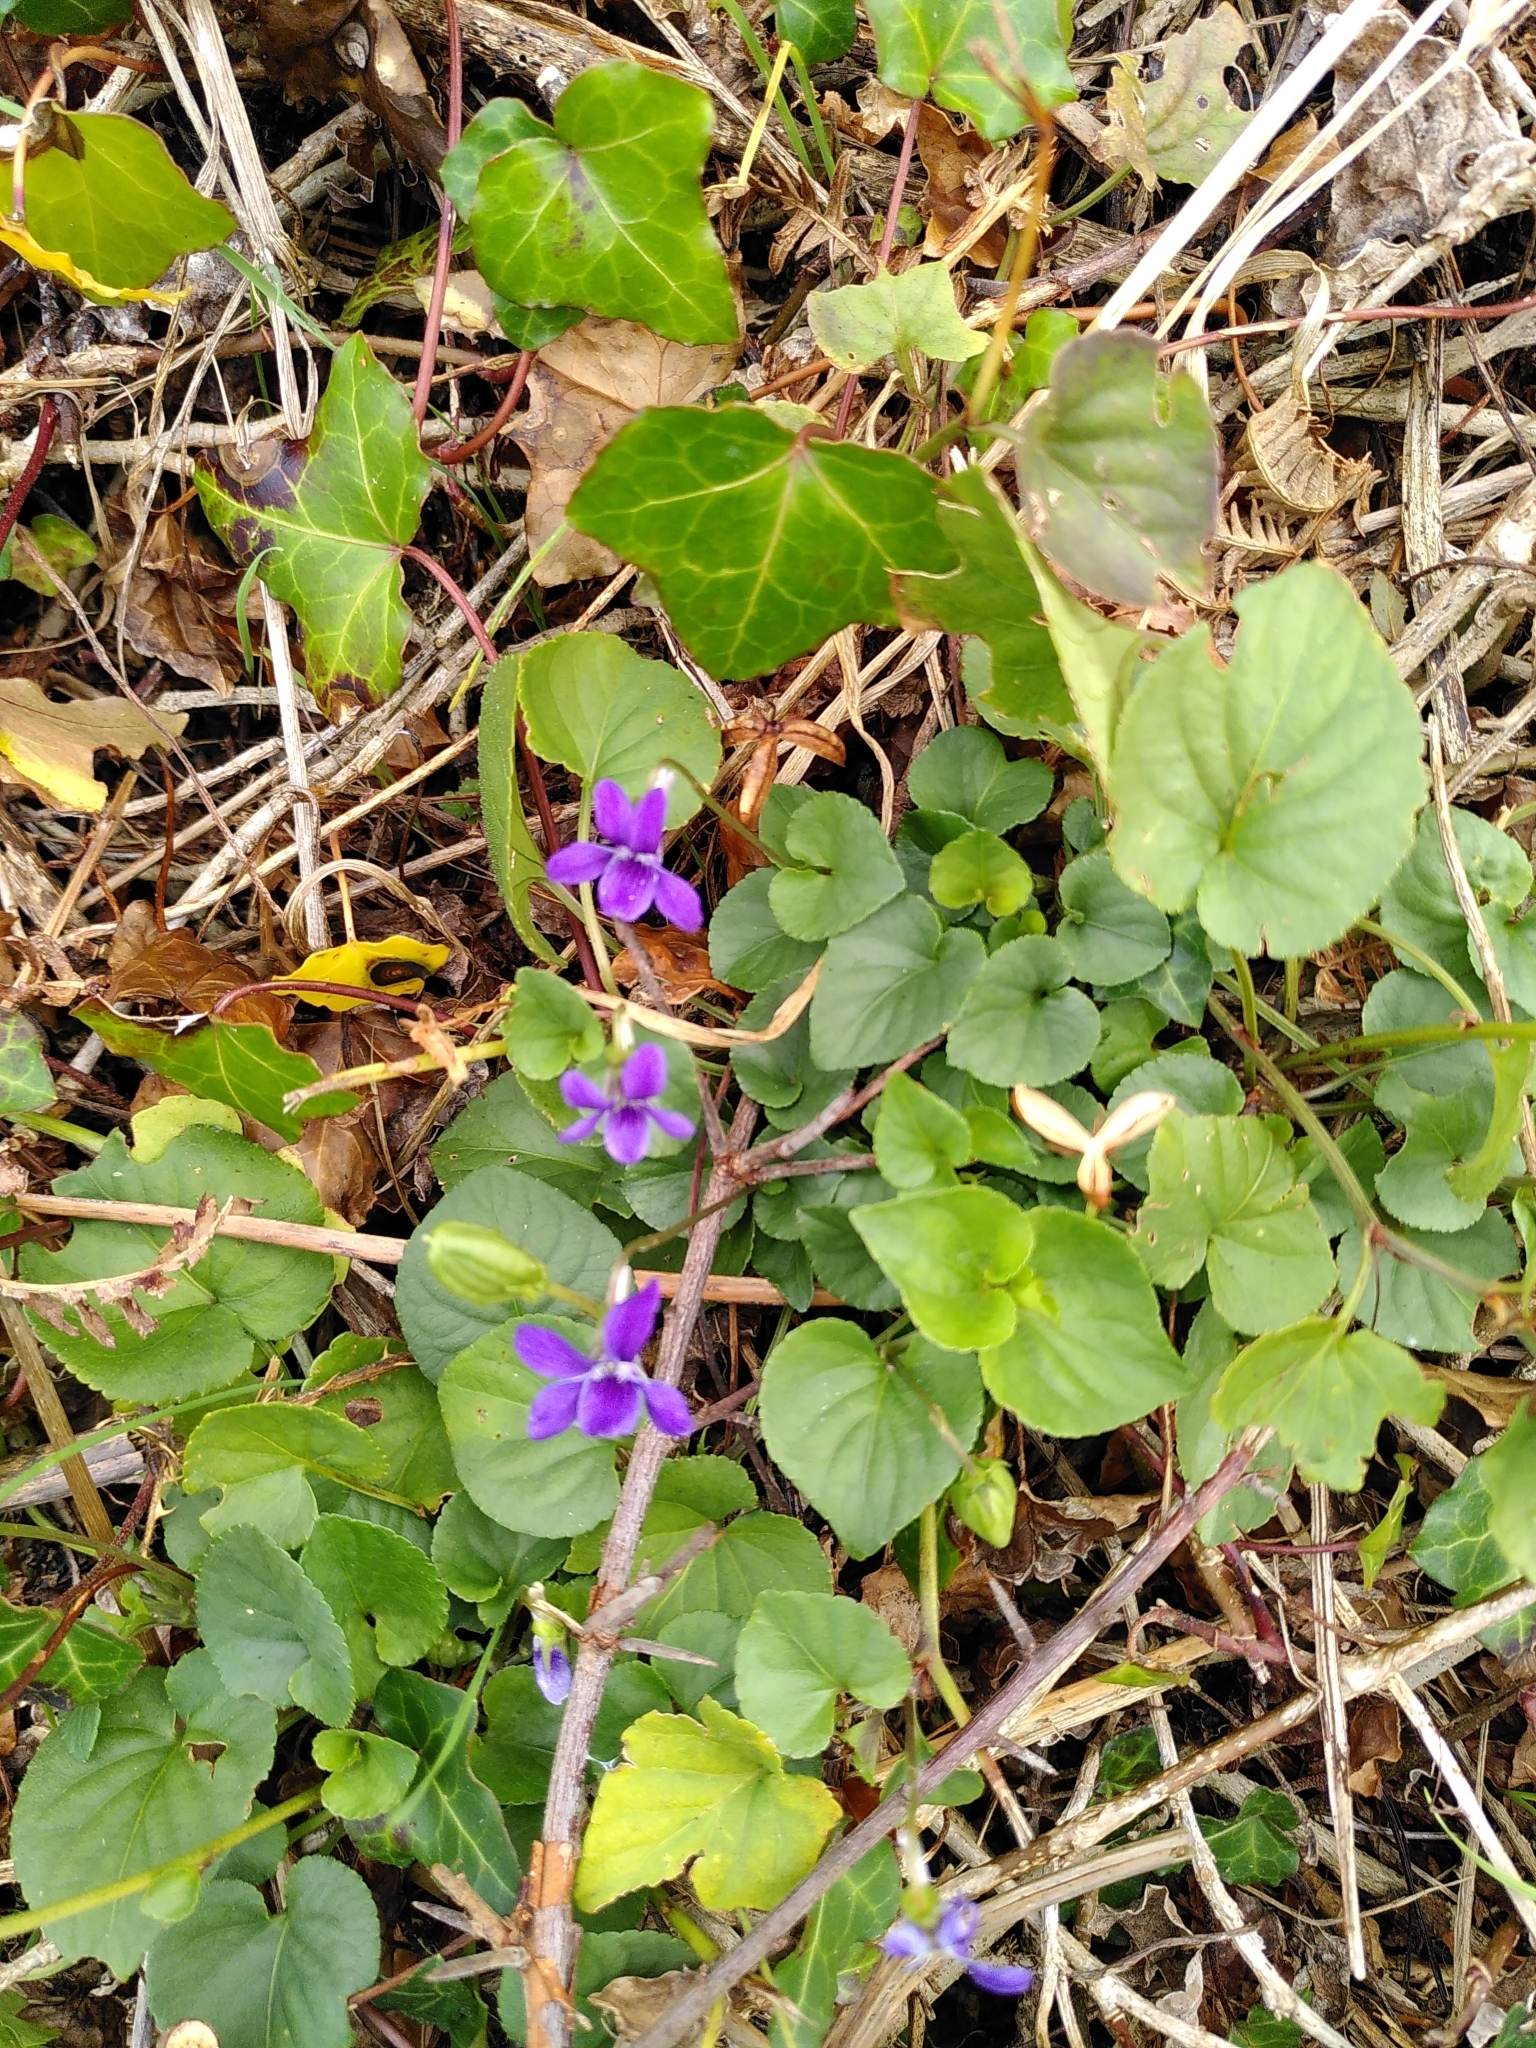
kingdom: Plantae
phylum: Tracheophyta
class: Magnoliopsida
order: Malpighiales
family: Violaceae
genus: Viola
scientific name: Viola riviniana
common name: Common dog-violet
